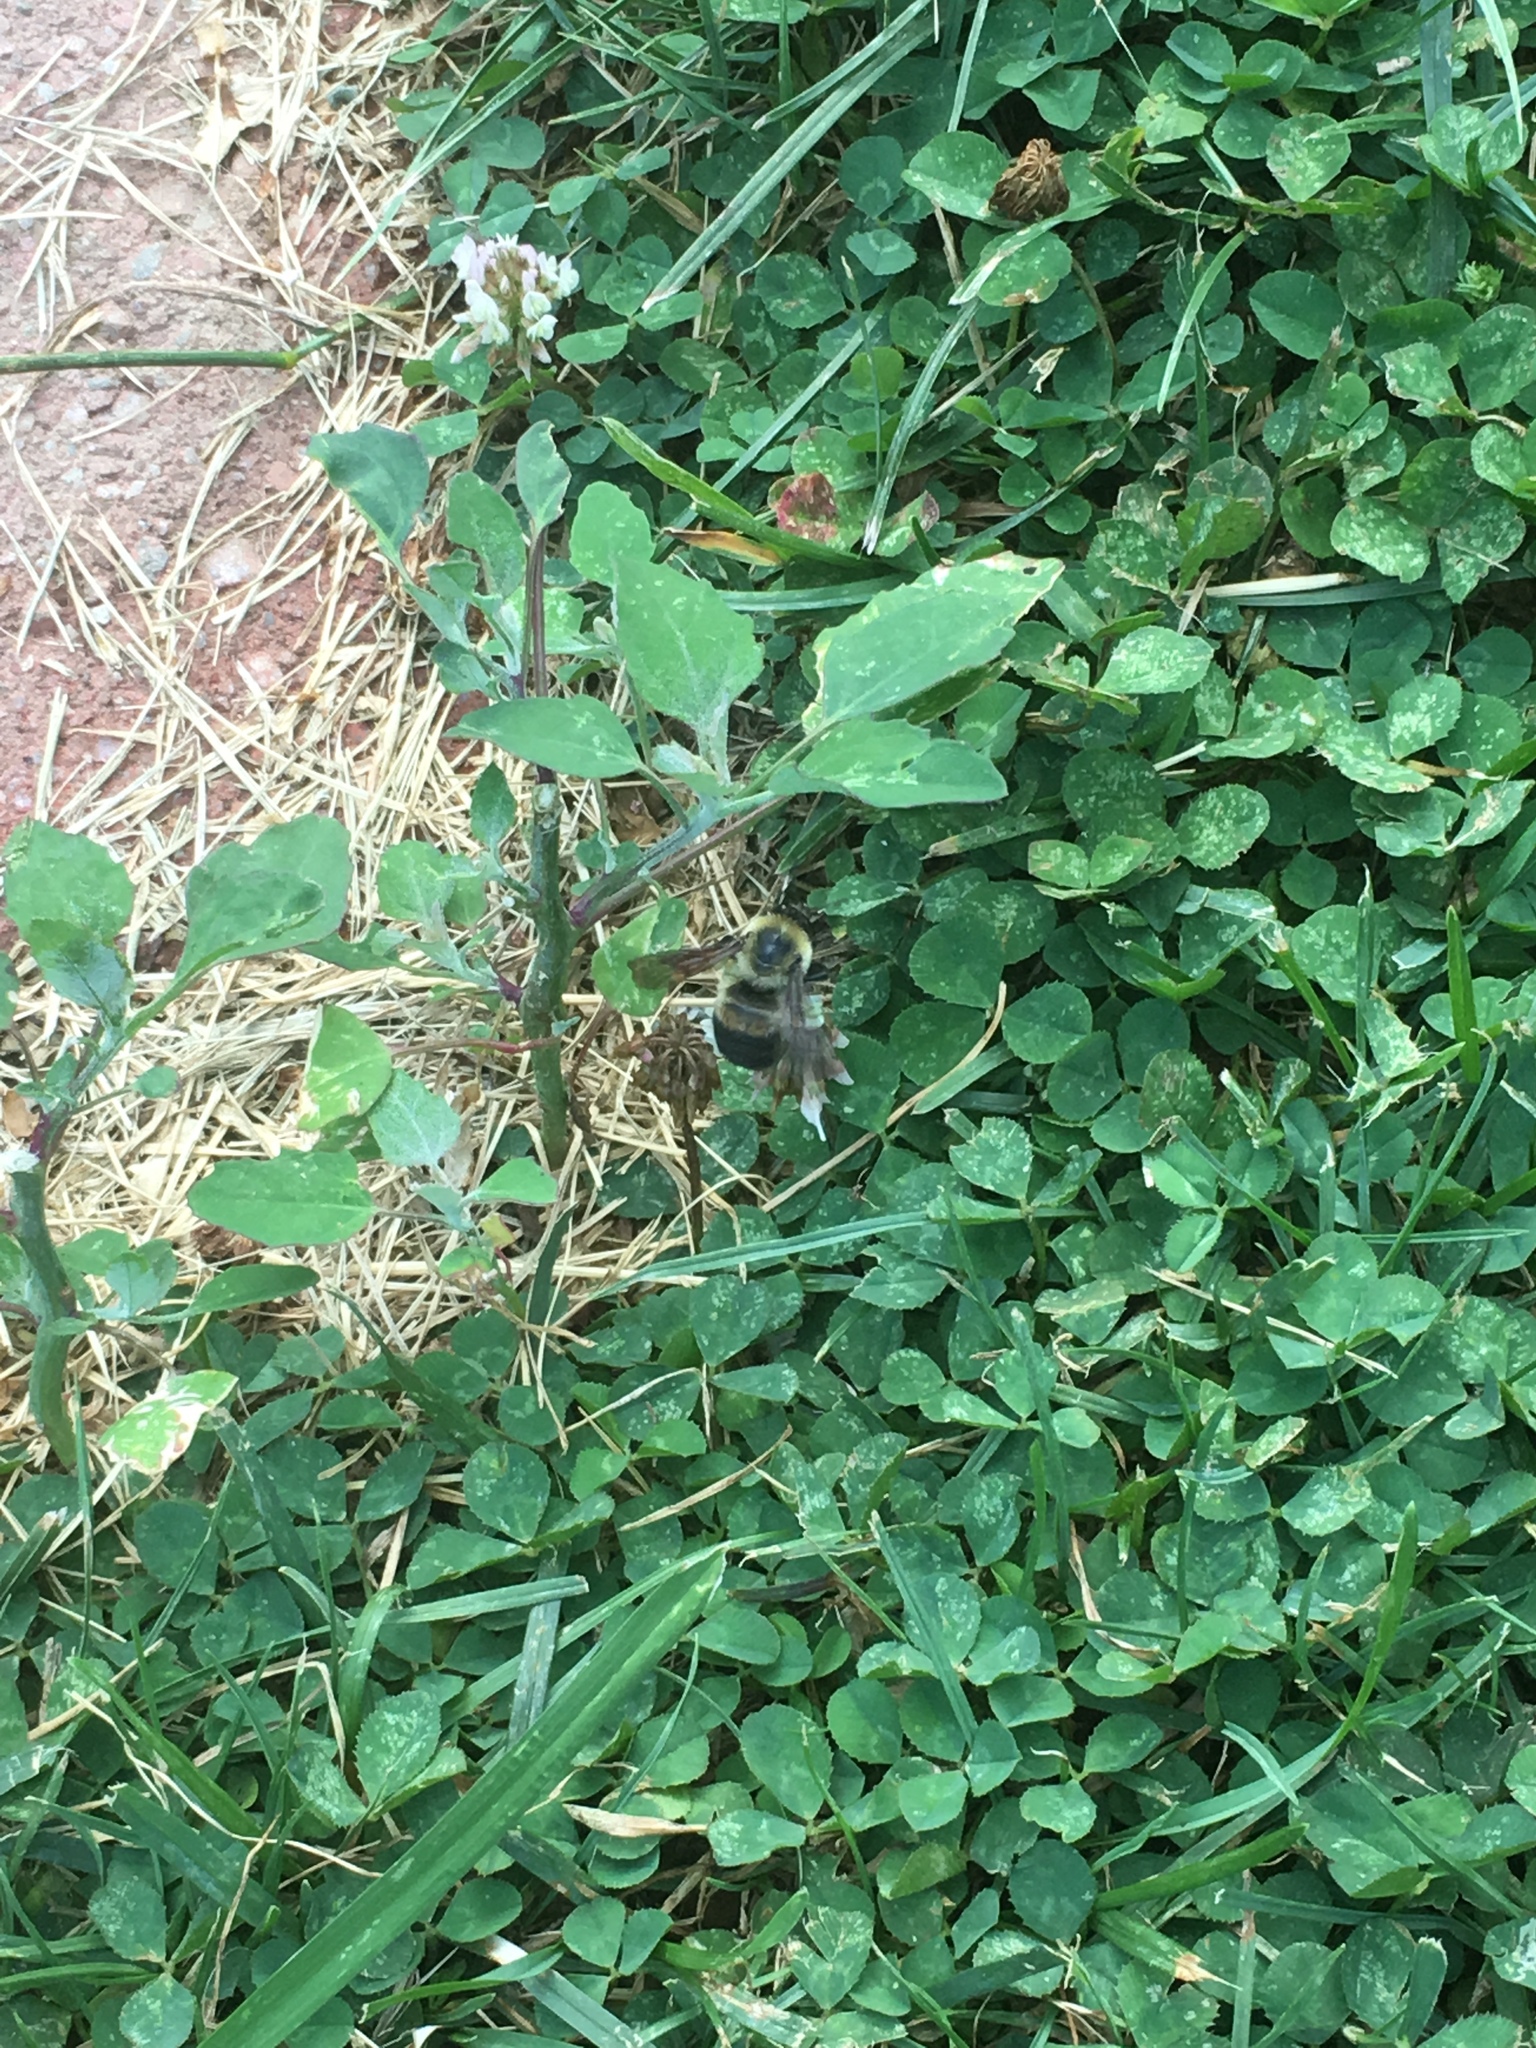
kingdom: Animalia
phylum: Arthropoda
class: Insecta
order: Hymenoptera
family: Apidae
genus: Bombus
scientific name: Bombus griseocollis
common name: Brown-belted bumble bee
